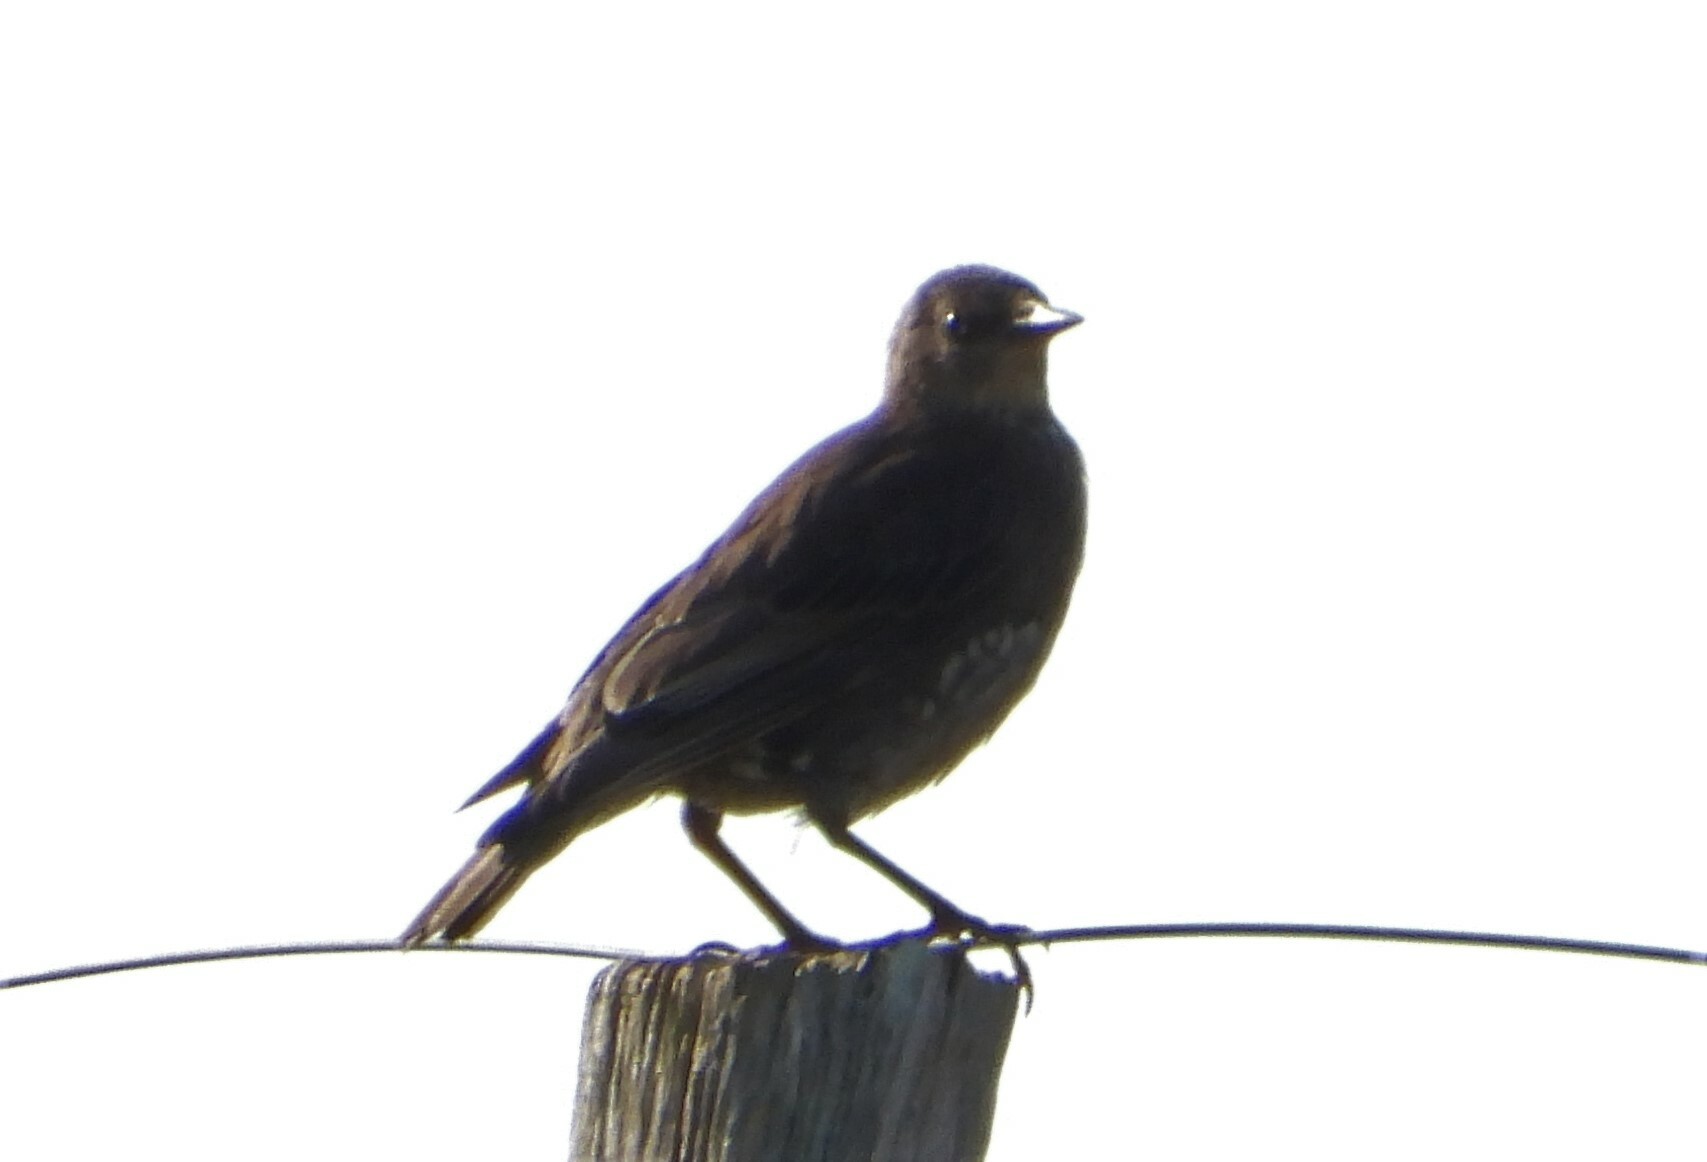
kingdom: Animalia
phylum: Chordata
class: Aves
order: Passeriformes
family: Sturnidae
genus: Sturnus
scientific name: Sturnus vulgaris
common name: Common starling
